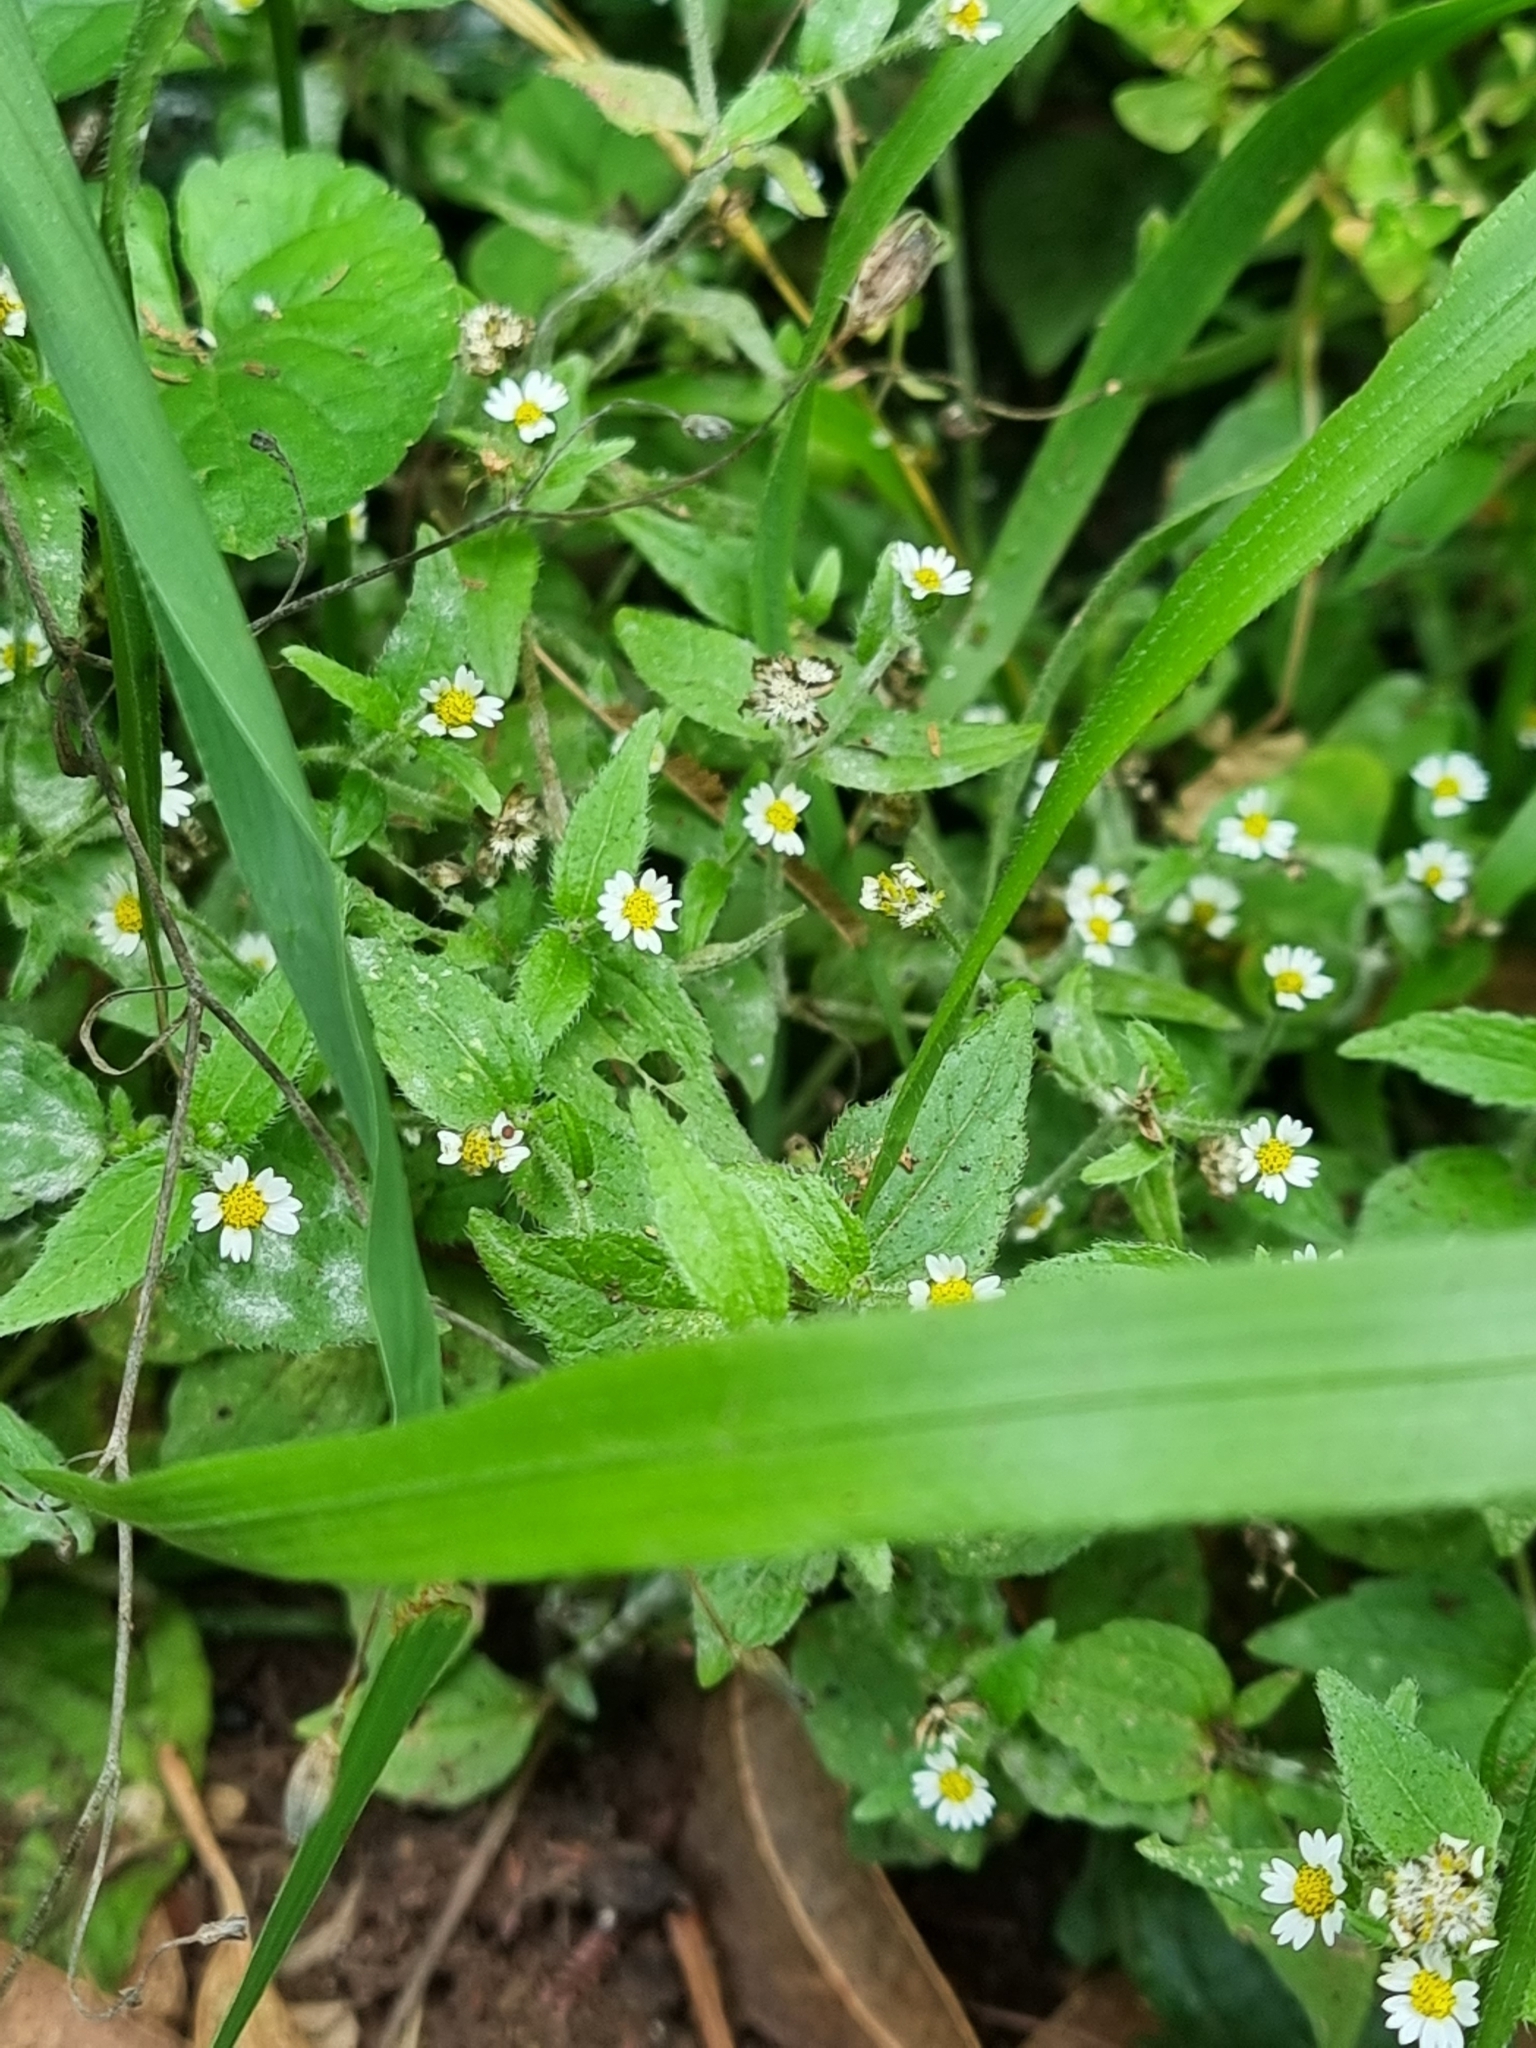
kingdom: Plantae
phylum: Tracheophyta
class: Magnoliopsida
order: Asterales
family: Asteraceae
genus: Galinsoga
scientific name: Galinsoga quadriradiata
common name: Shaggy soldier
